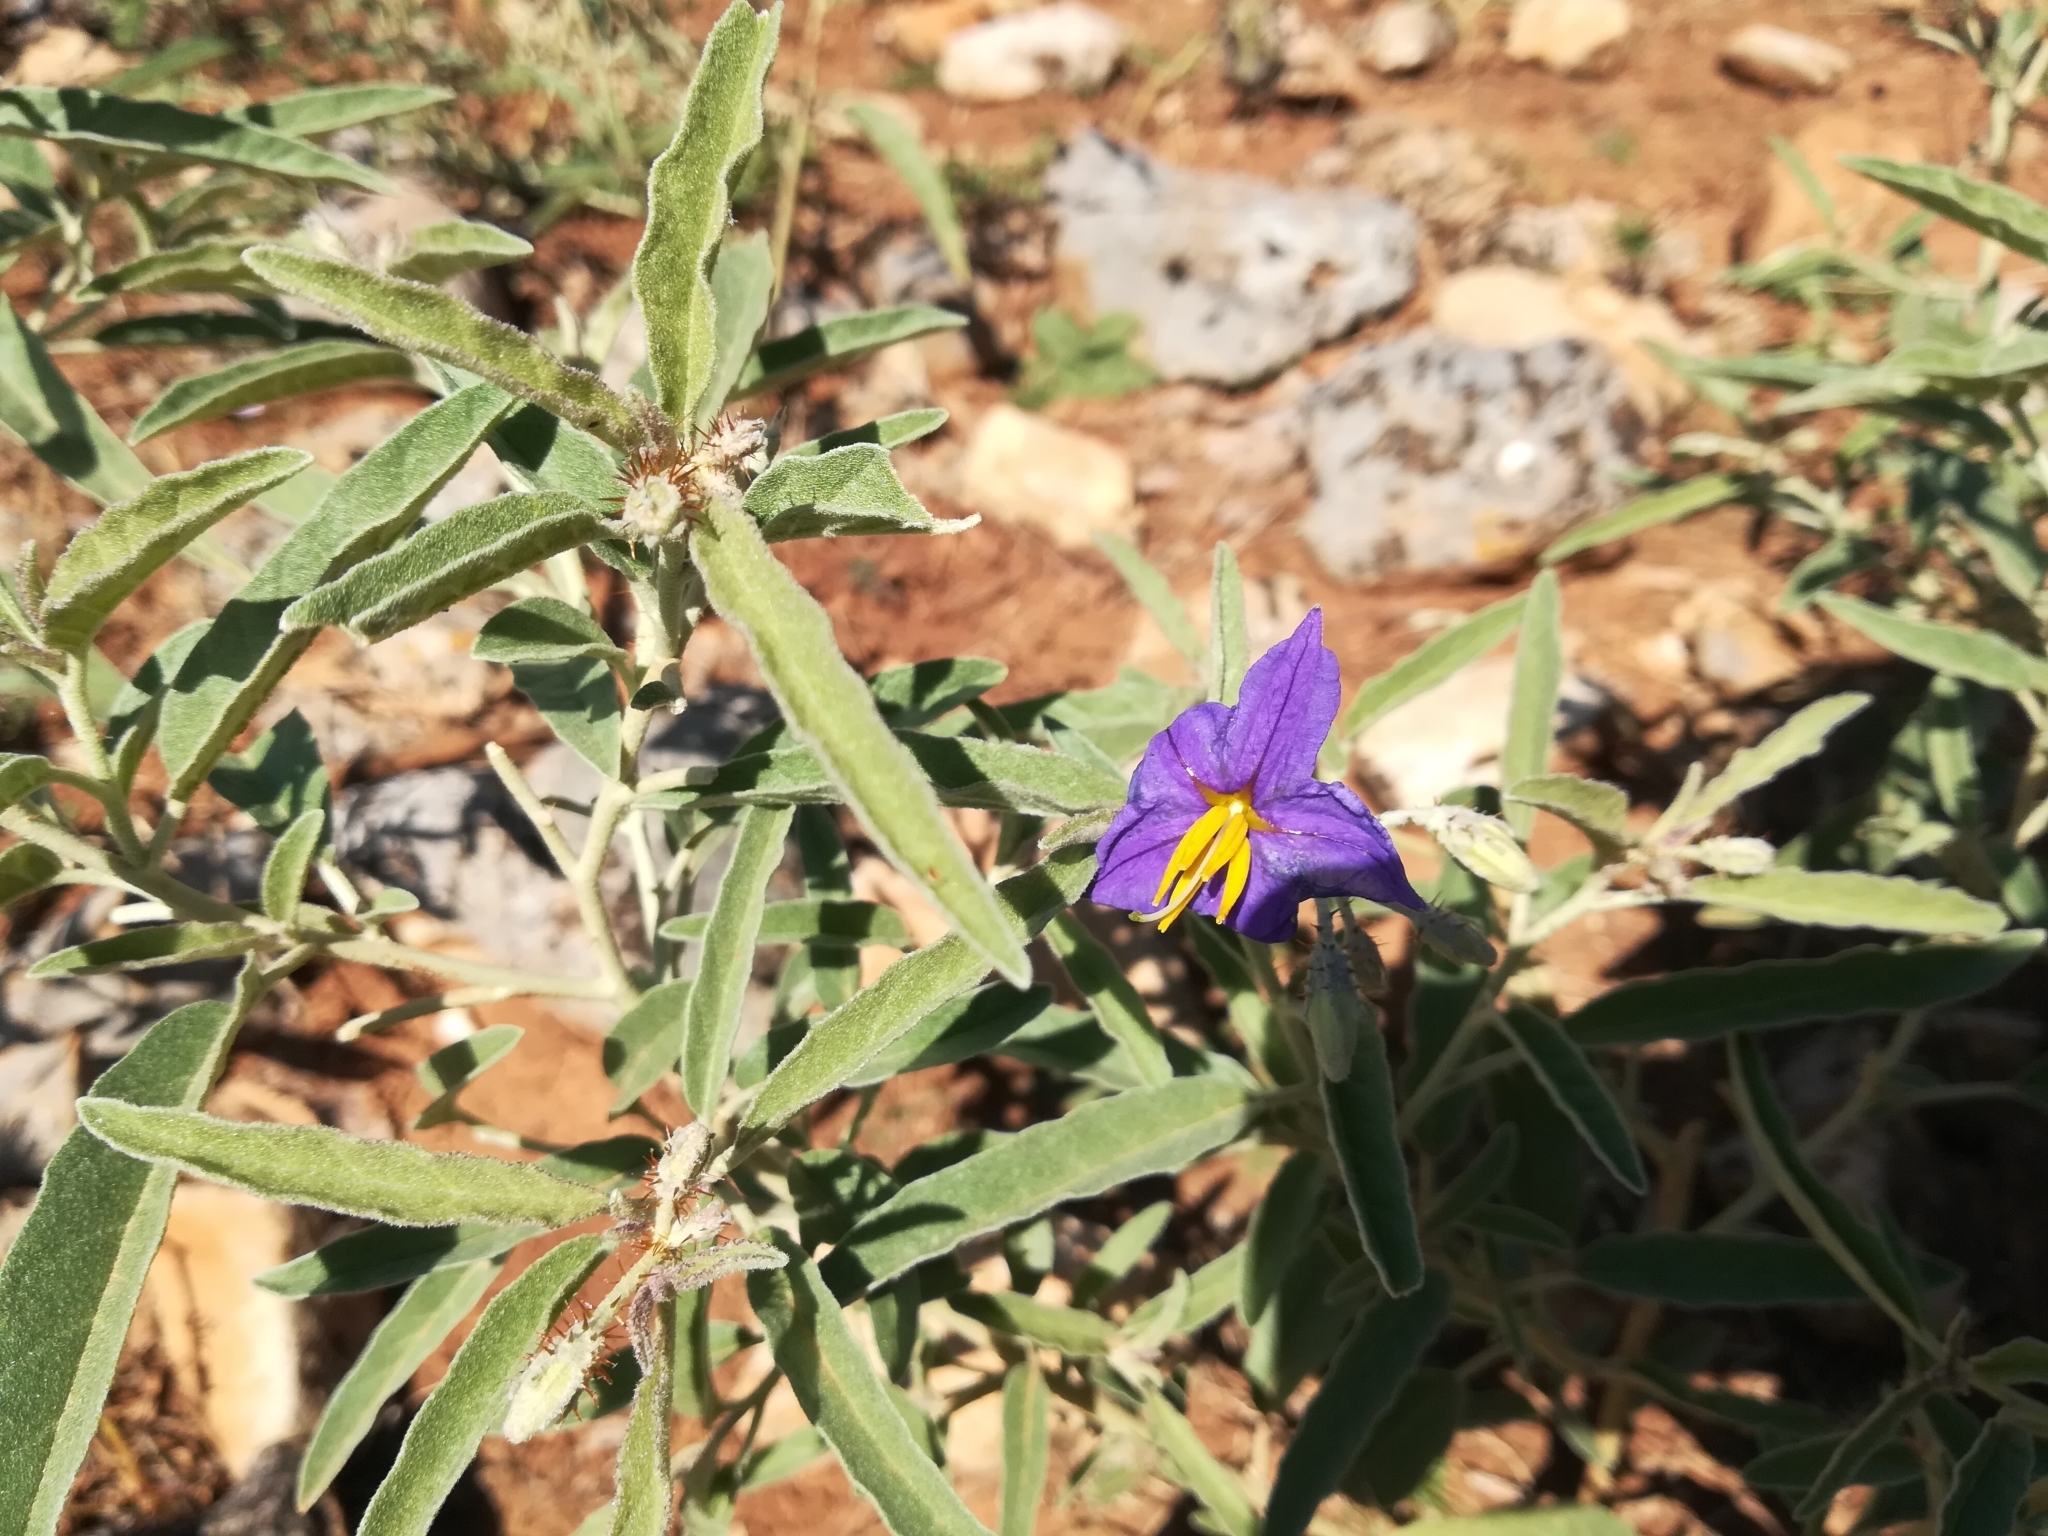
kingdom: Plantae
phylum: Tracheophyta
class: Magnoliopsida
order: Solanales
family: Solanaceae
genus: Solanum
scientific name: Solanum elaeagnifolium
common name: Silverleaf nightshade
